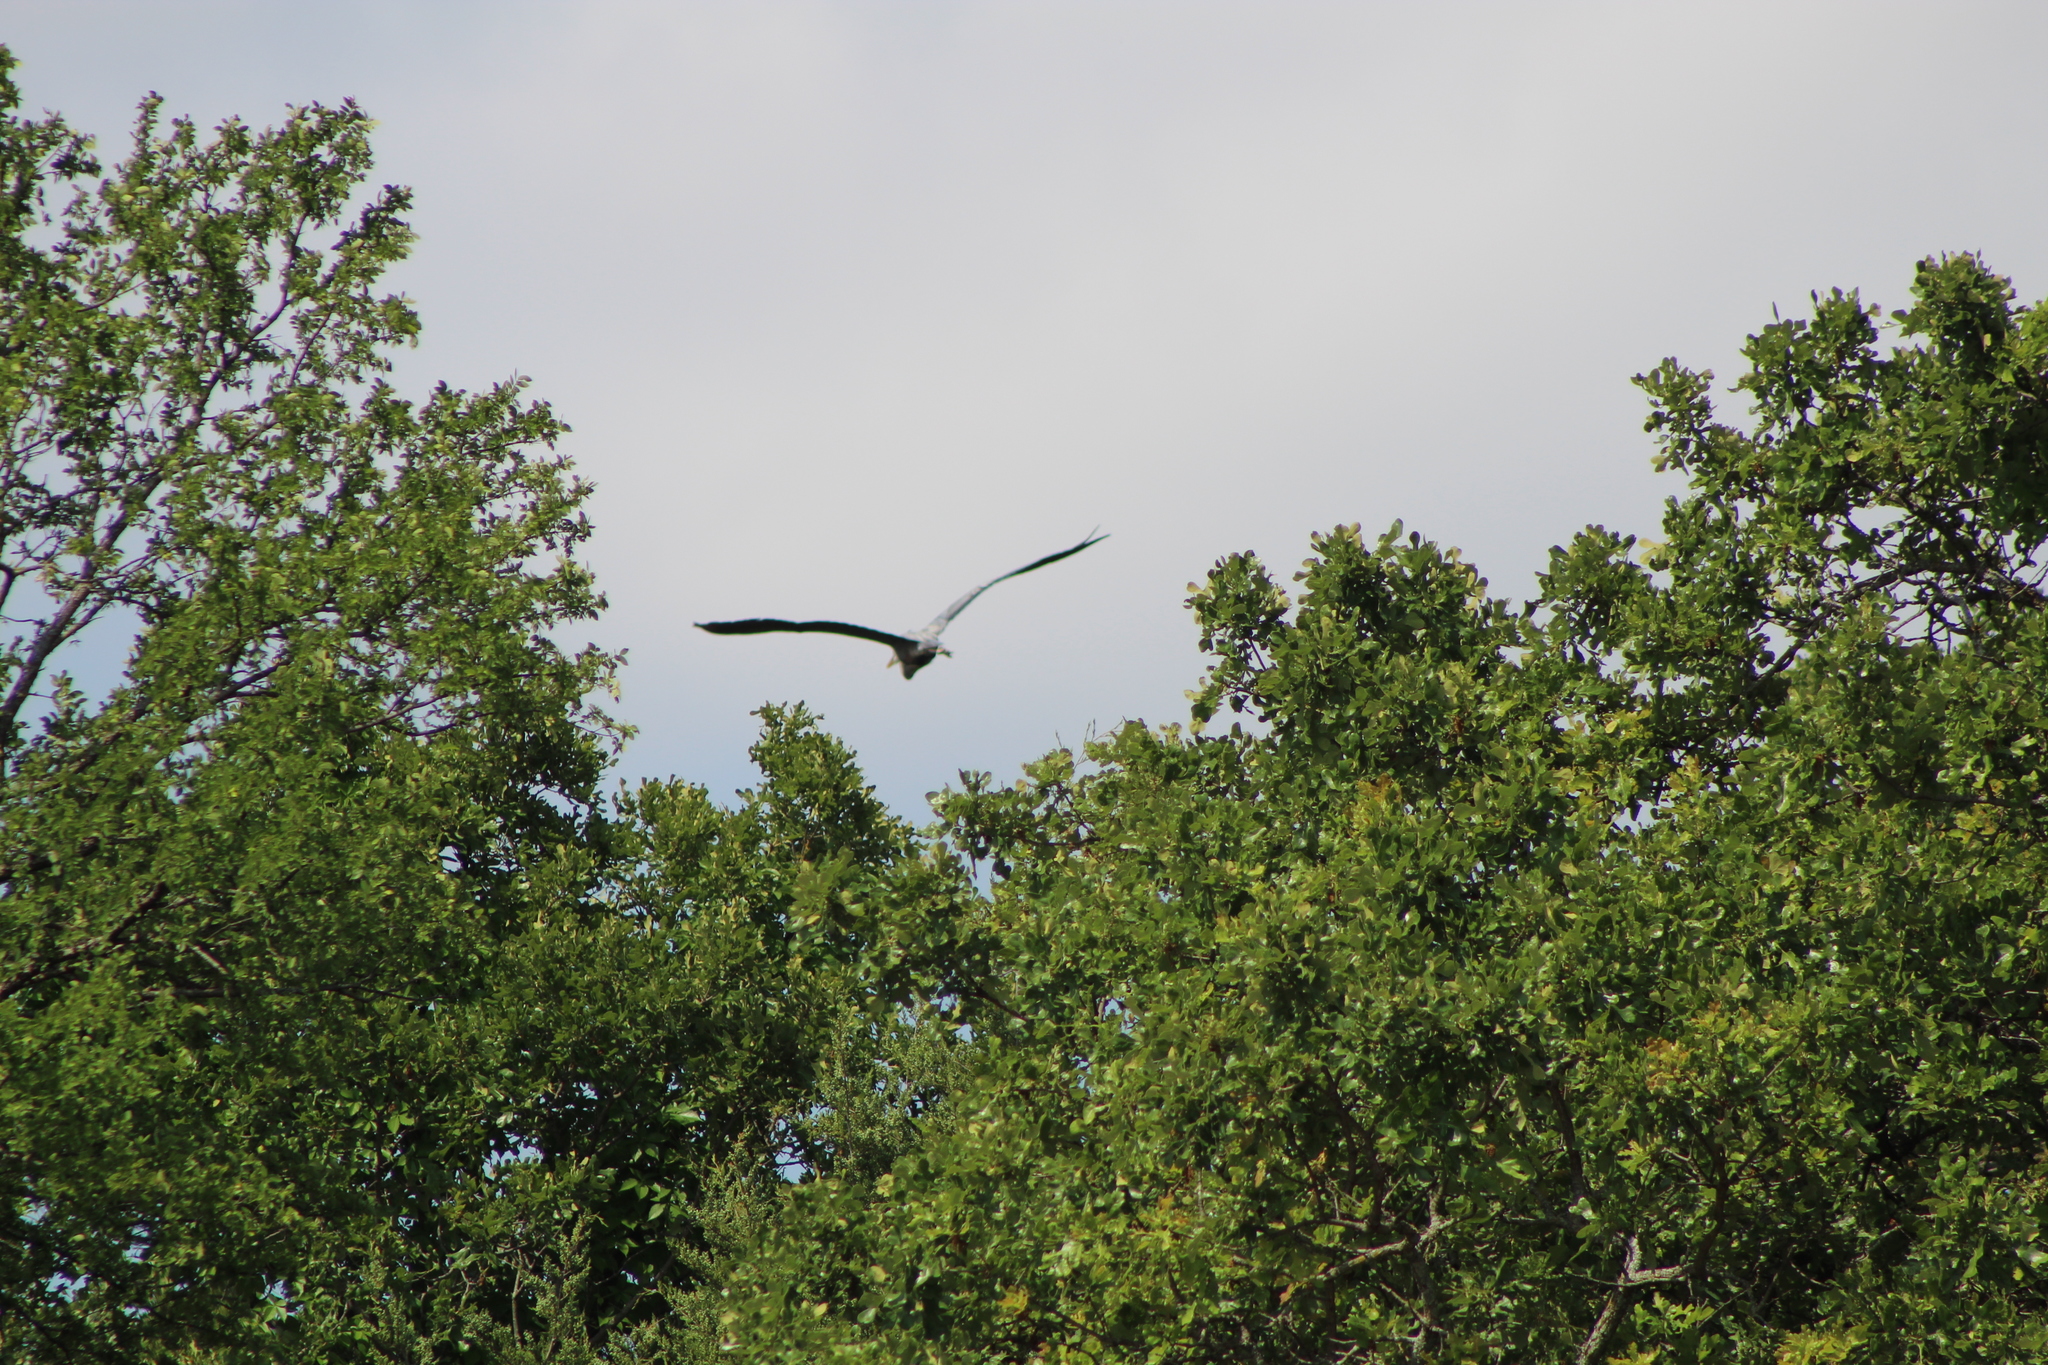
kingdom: Animalia
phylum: Chordata
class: Aves
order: Pelecaniformes
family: Ardeidae
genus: Ardea
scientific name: Ardea herodias
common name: Great blue heron
